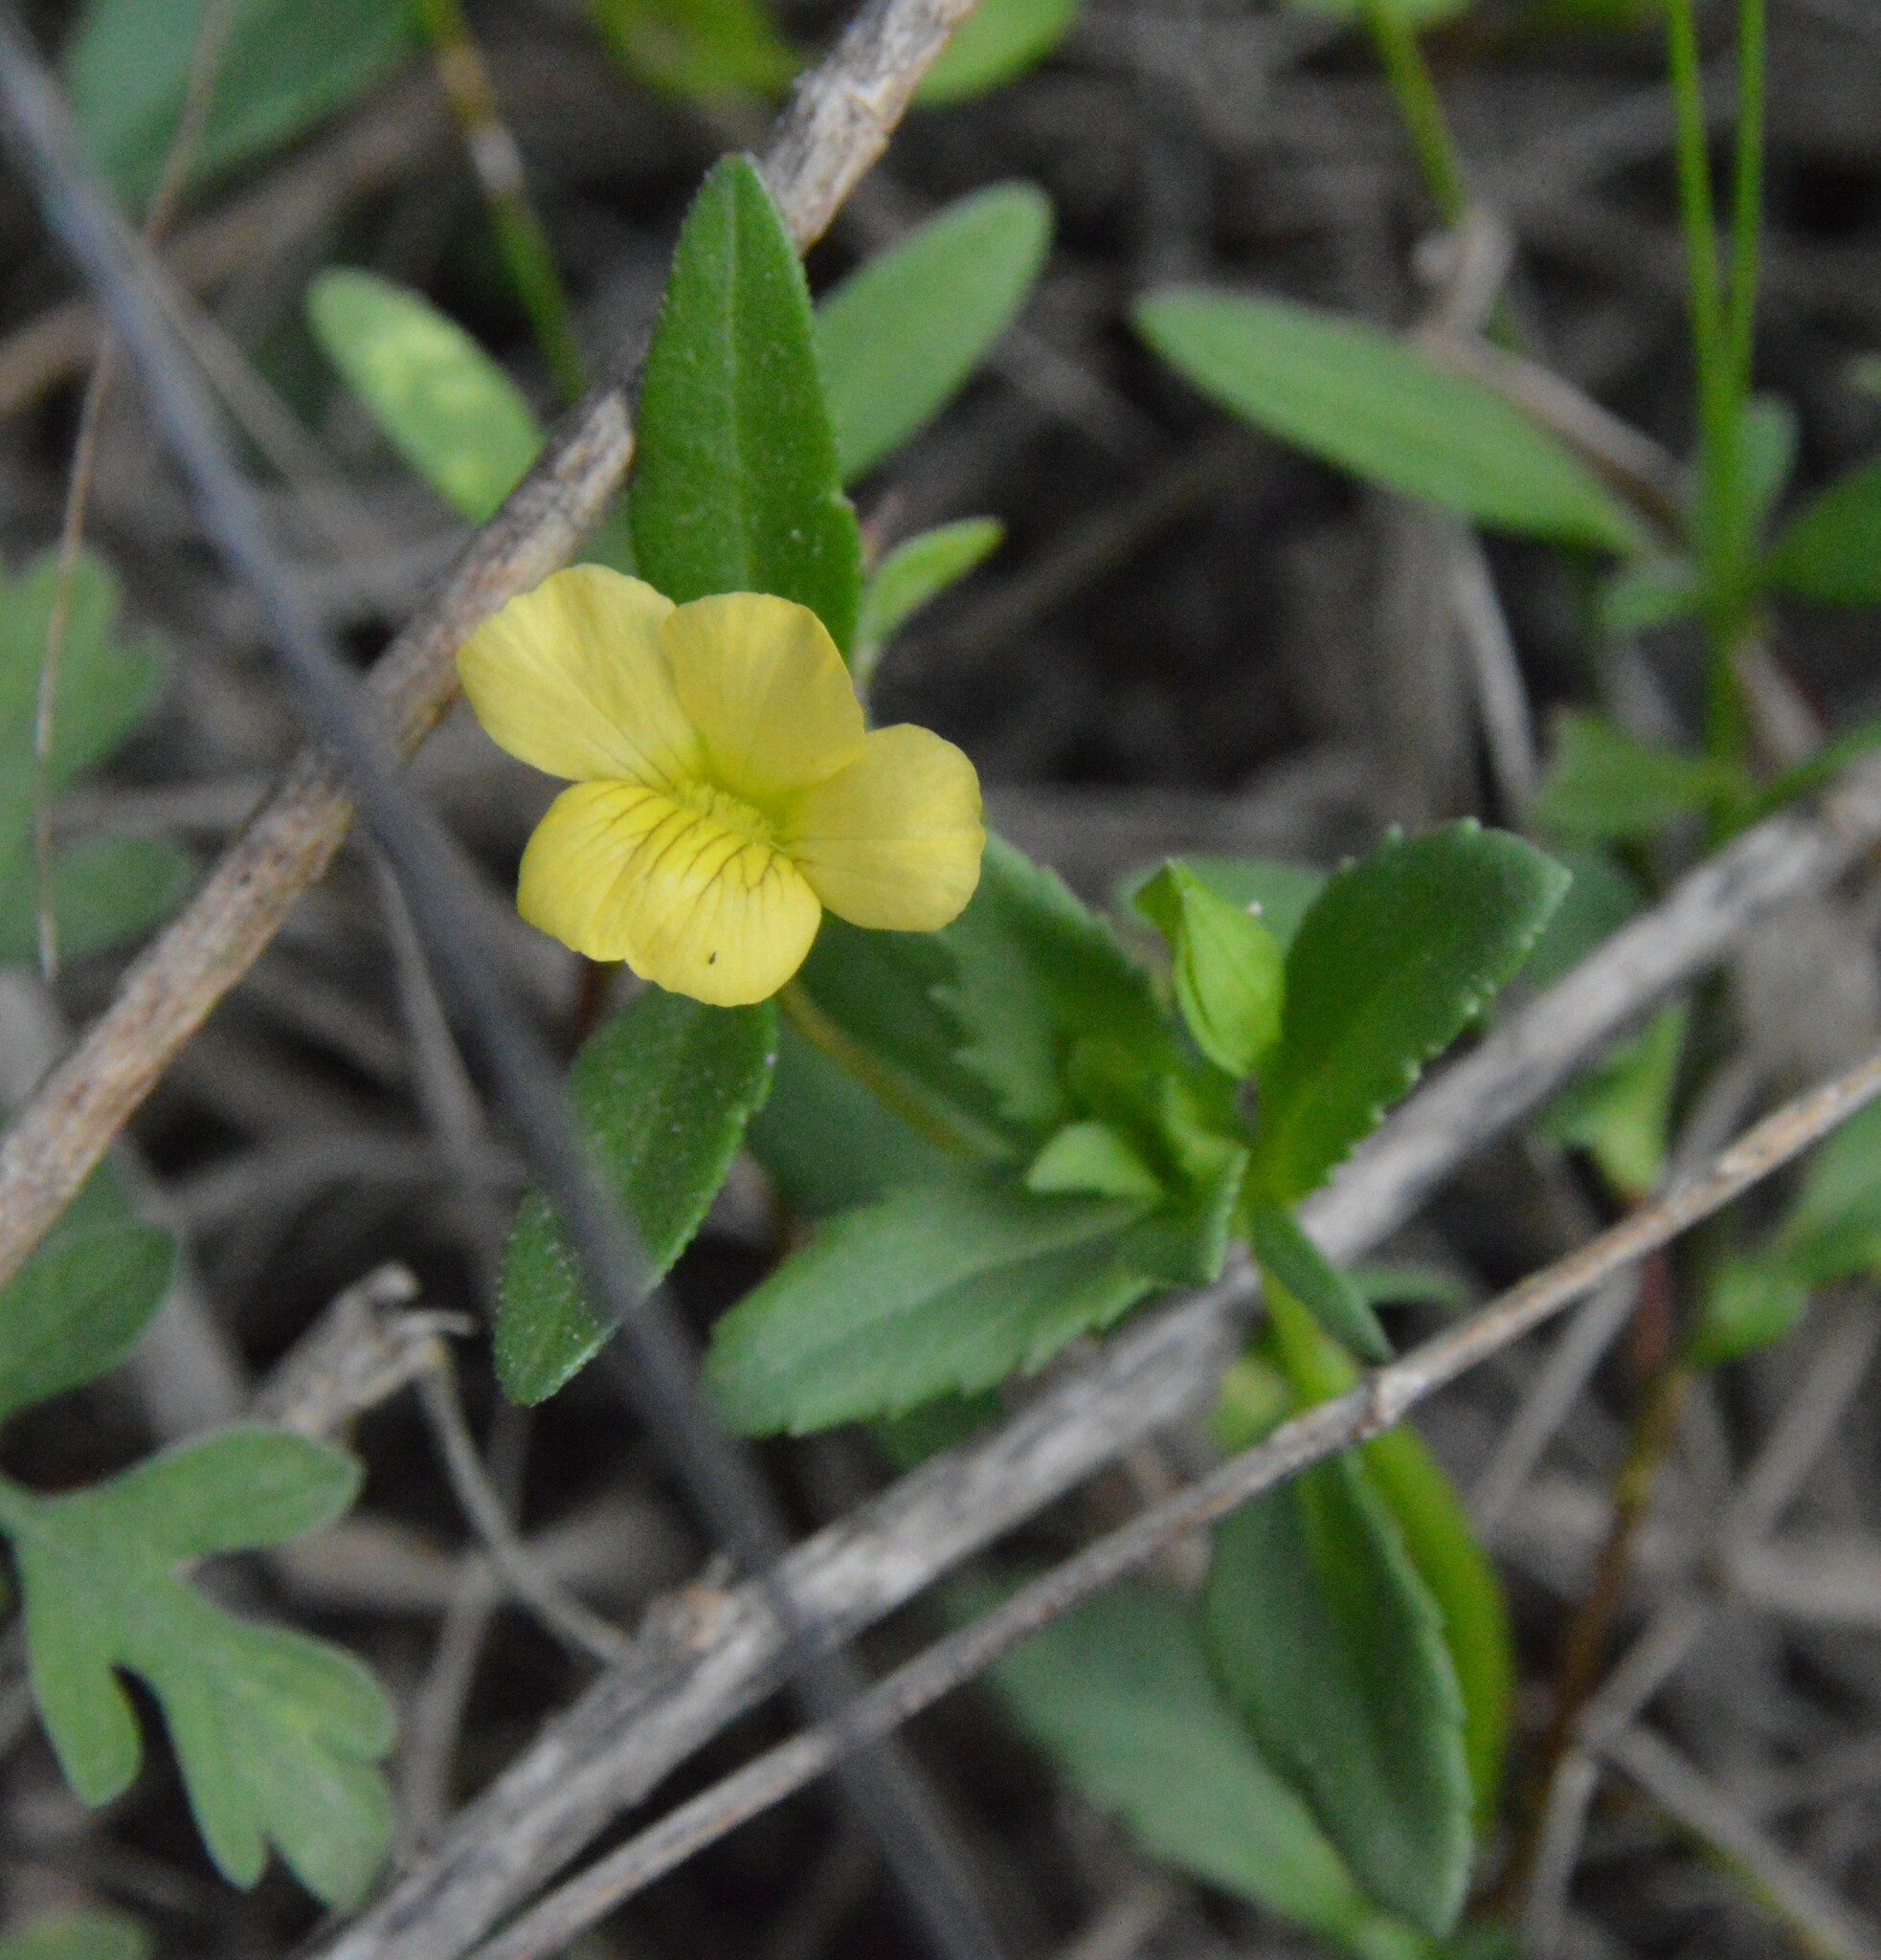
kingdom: Plantae
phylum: Tracheophyta
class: Magnoliopsida
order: Lamiales
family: Plantaginaceae
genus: Mecardonia
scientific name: Mecardonia procumbens
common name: Baby jump-up
